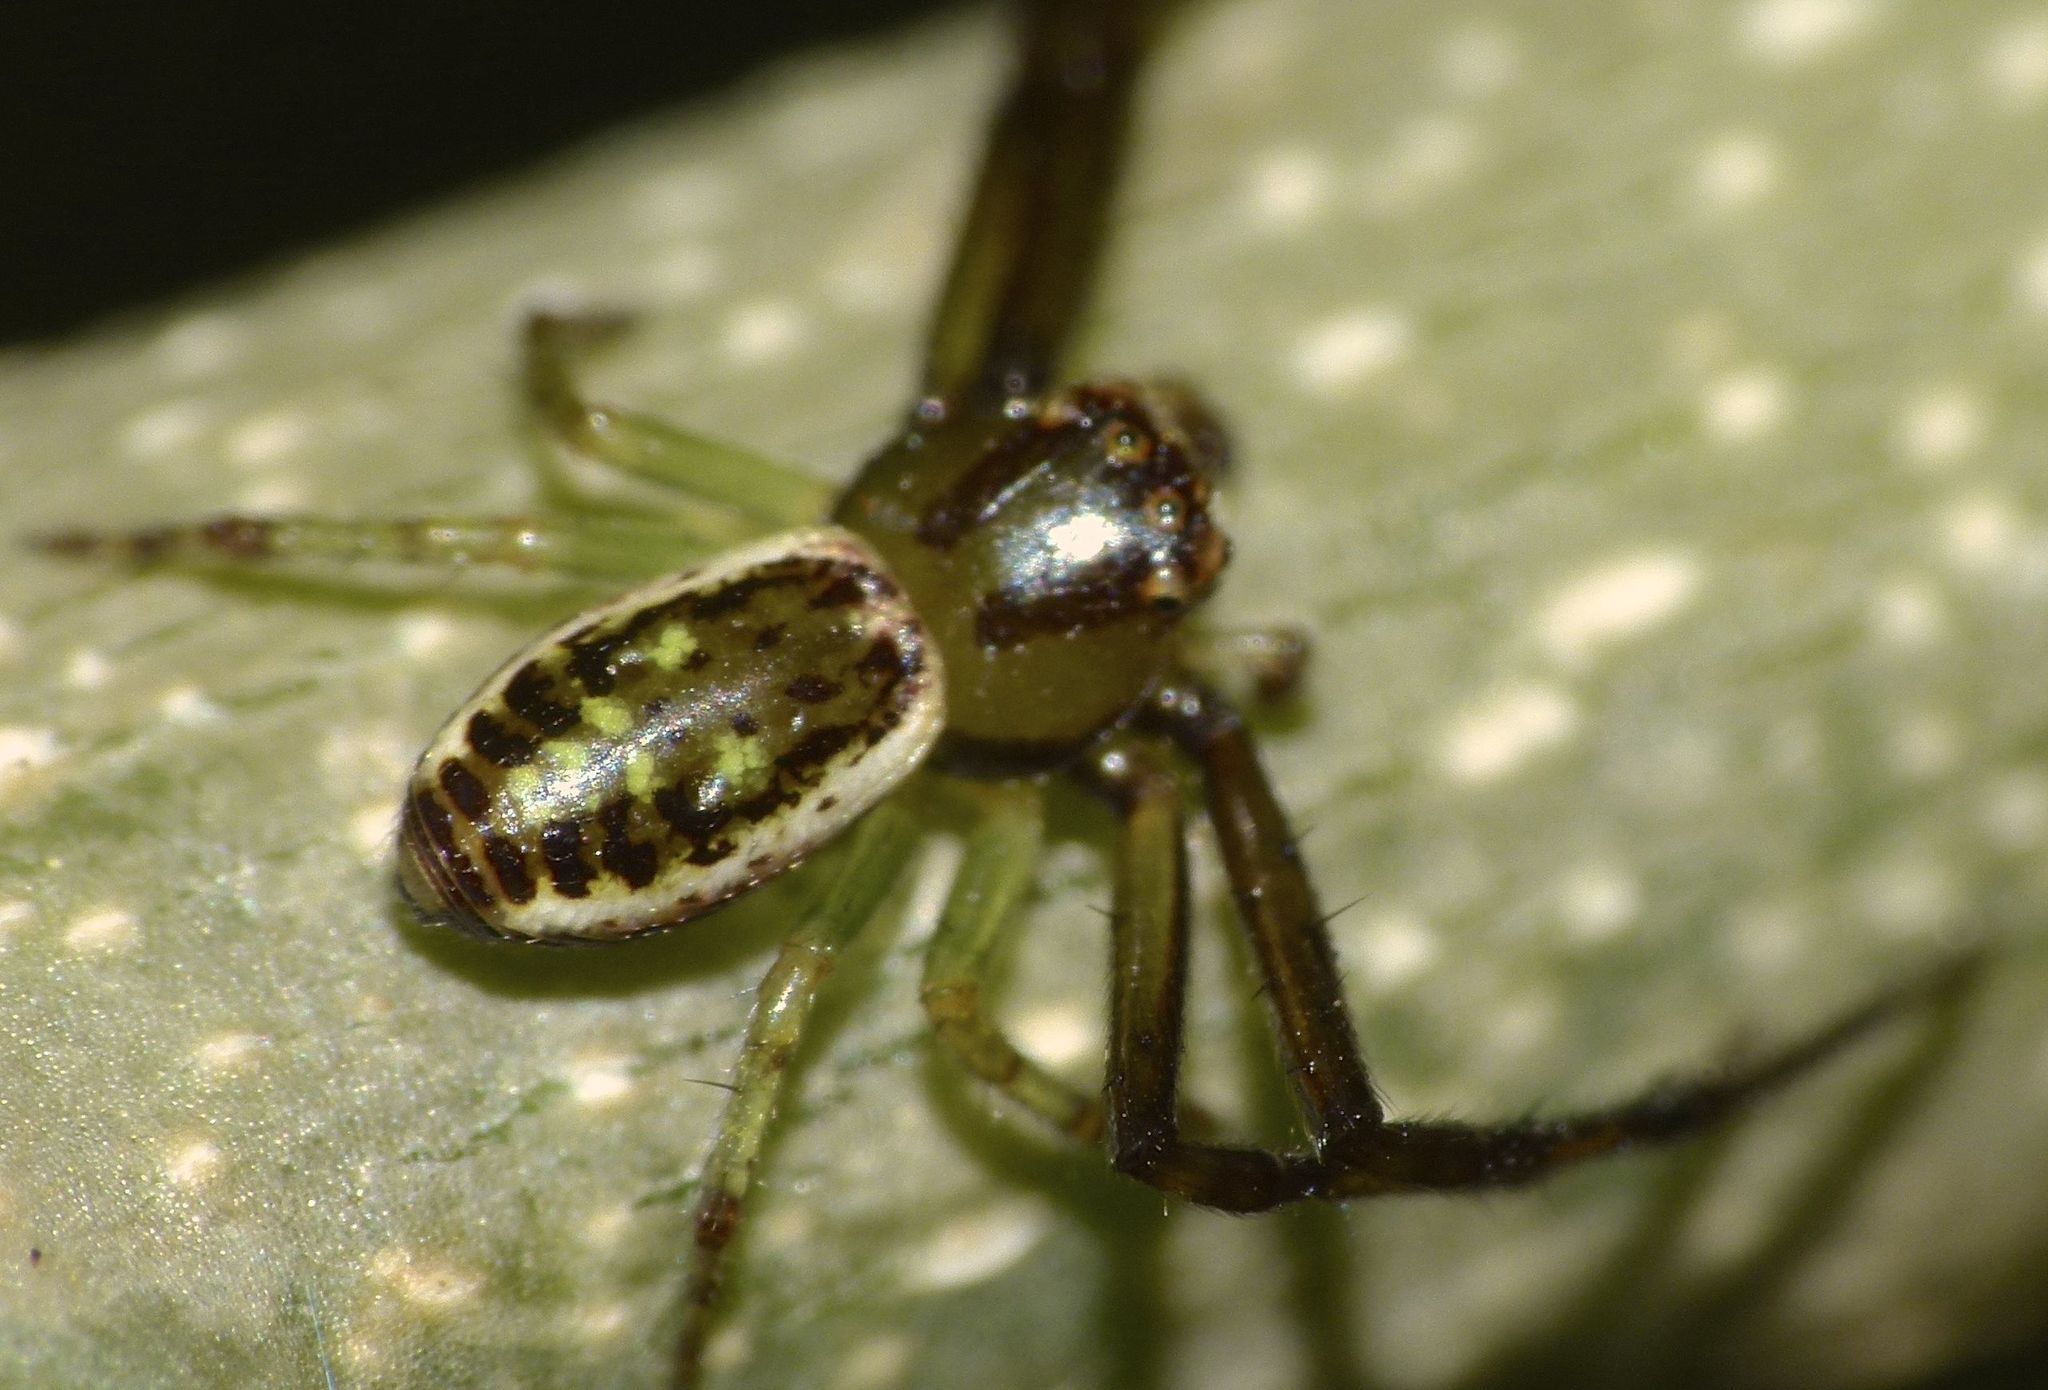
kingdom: Animalia
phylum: Arthropoda
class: Arachnida
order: Araneae
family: Thomisidae
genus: Diaea
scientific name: Diaea ambara
